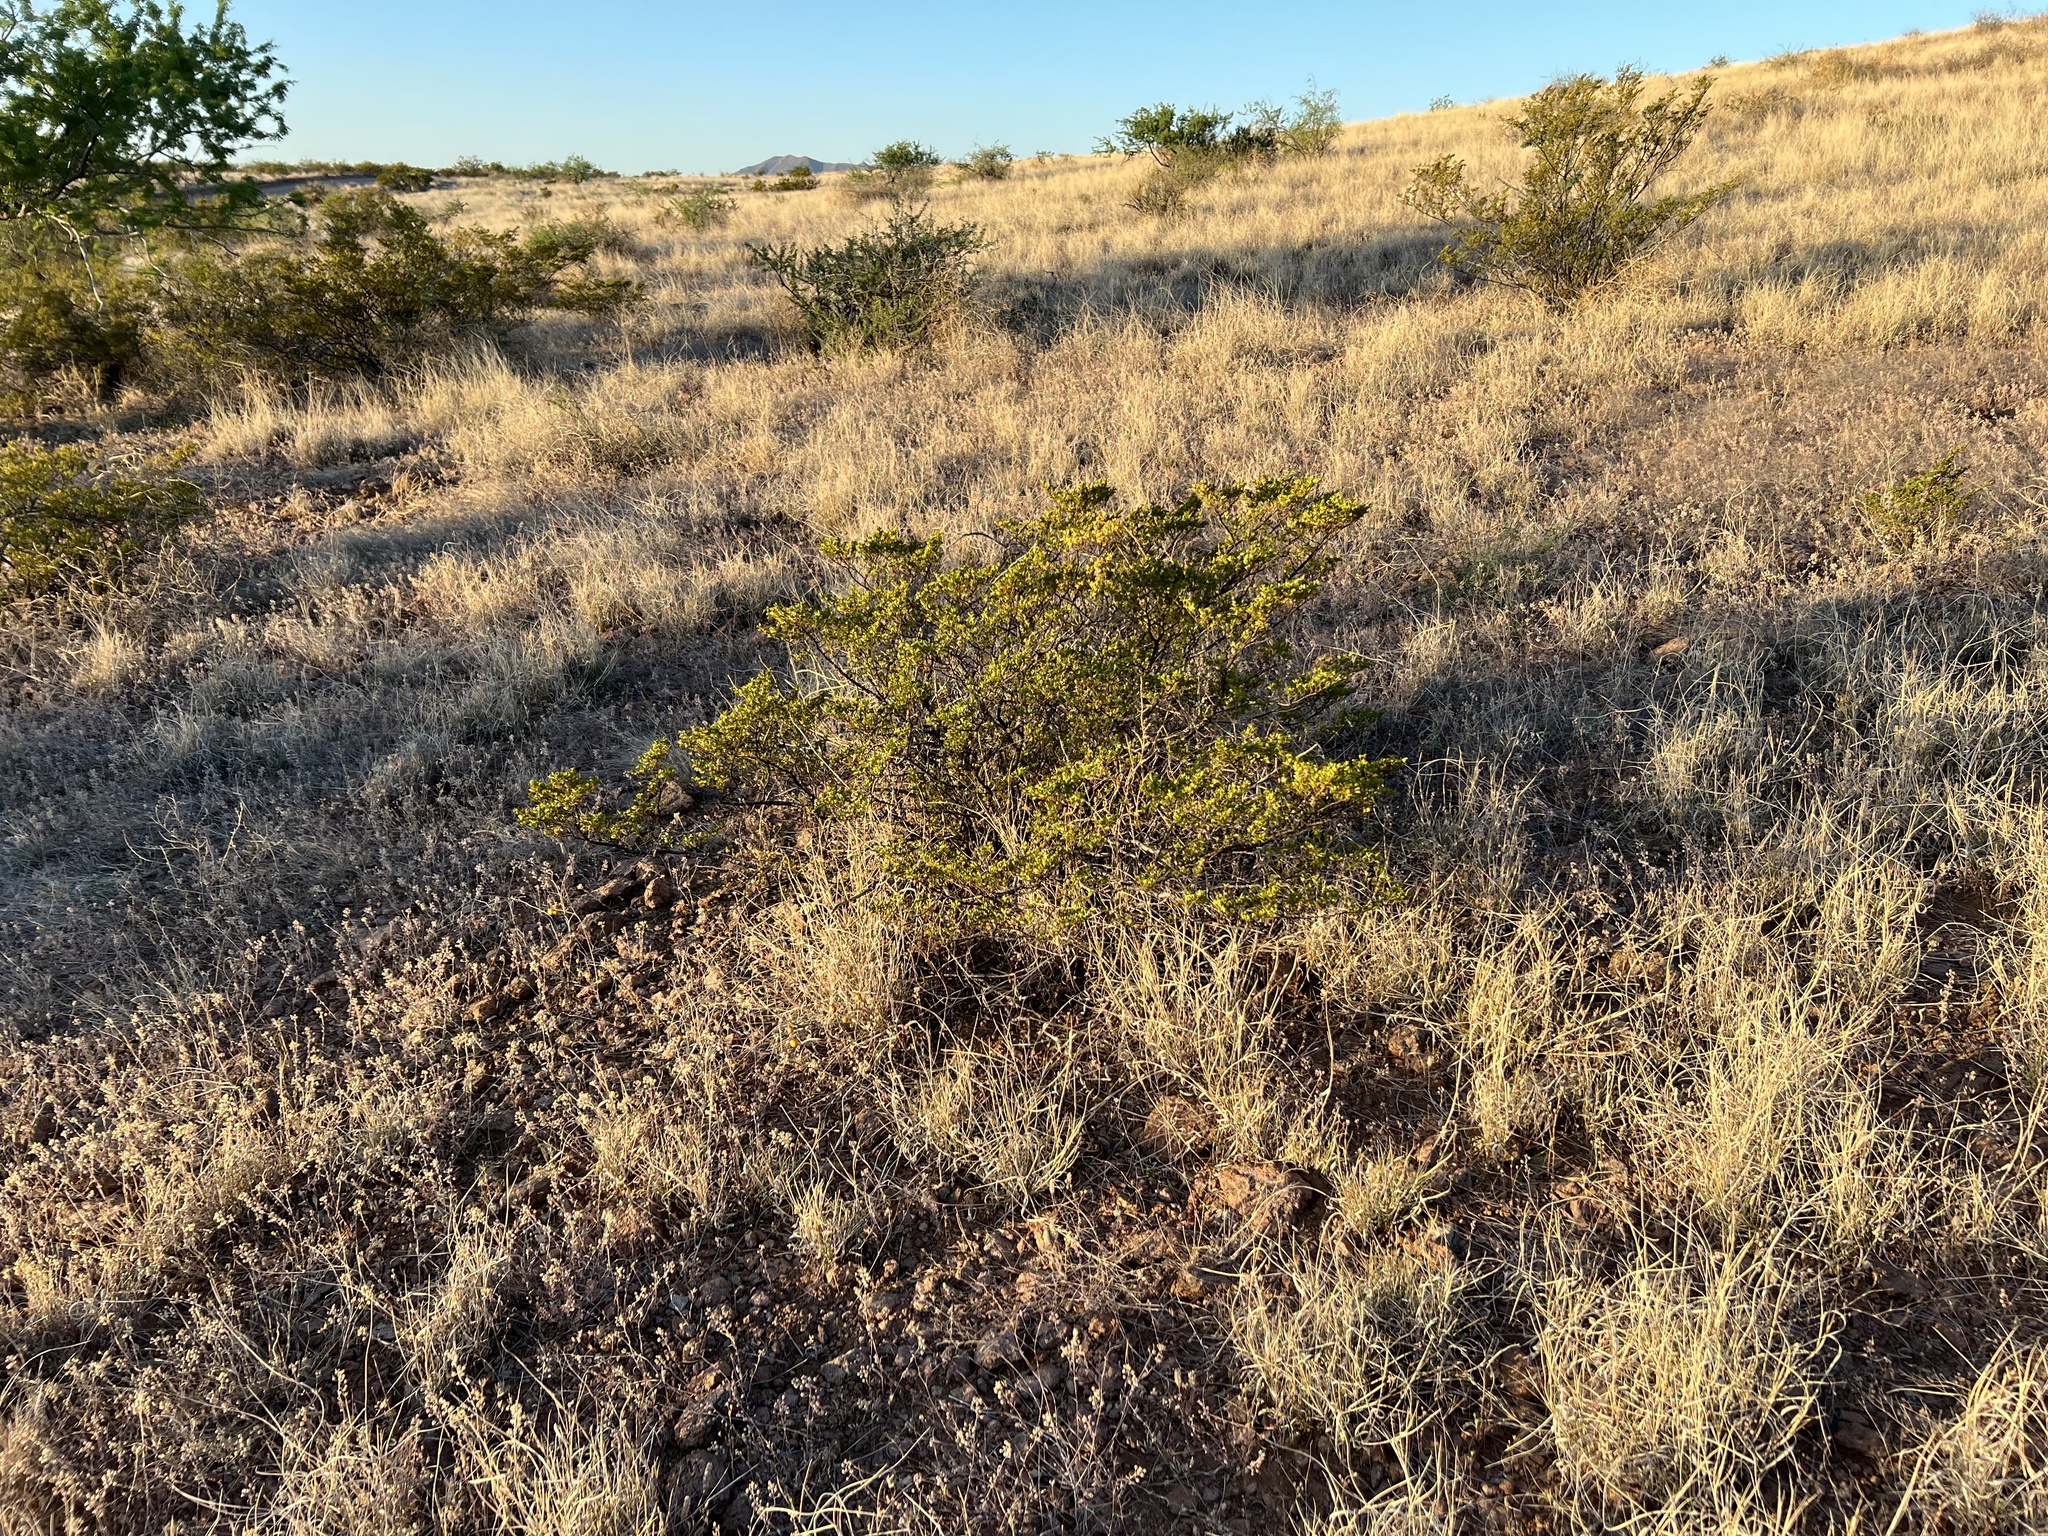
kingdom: Plantae
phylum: Tracheophyta
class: Magnoliopsida
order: Zygophyllales
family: Zygophyllaceae
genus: Larrea
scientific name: Larrea tridentata
